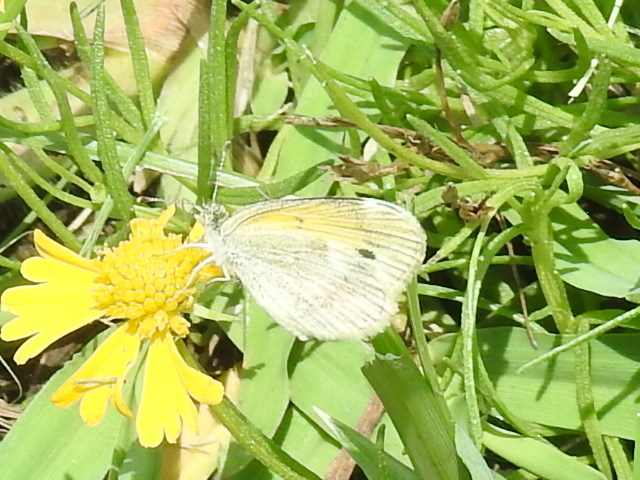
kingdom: Animalia
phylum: Arthropoda
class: Insecta
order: Lepidoptera
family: Pieridae
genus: Nathalis
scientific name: Nathalis iole
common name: Dainty sulphur
